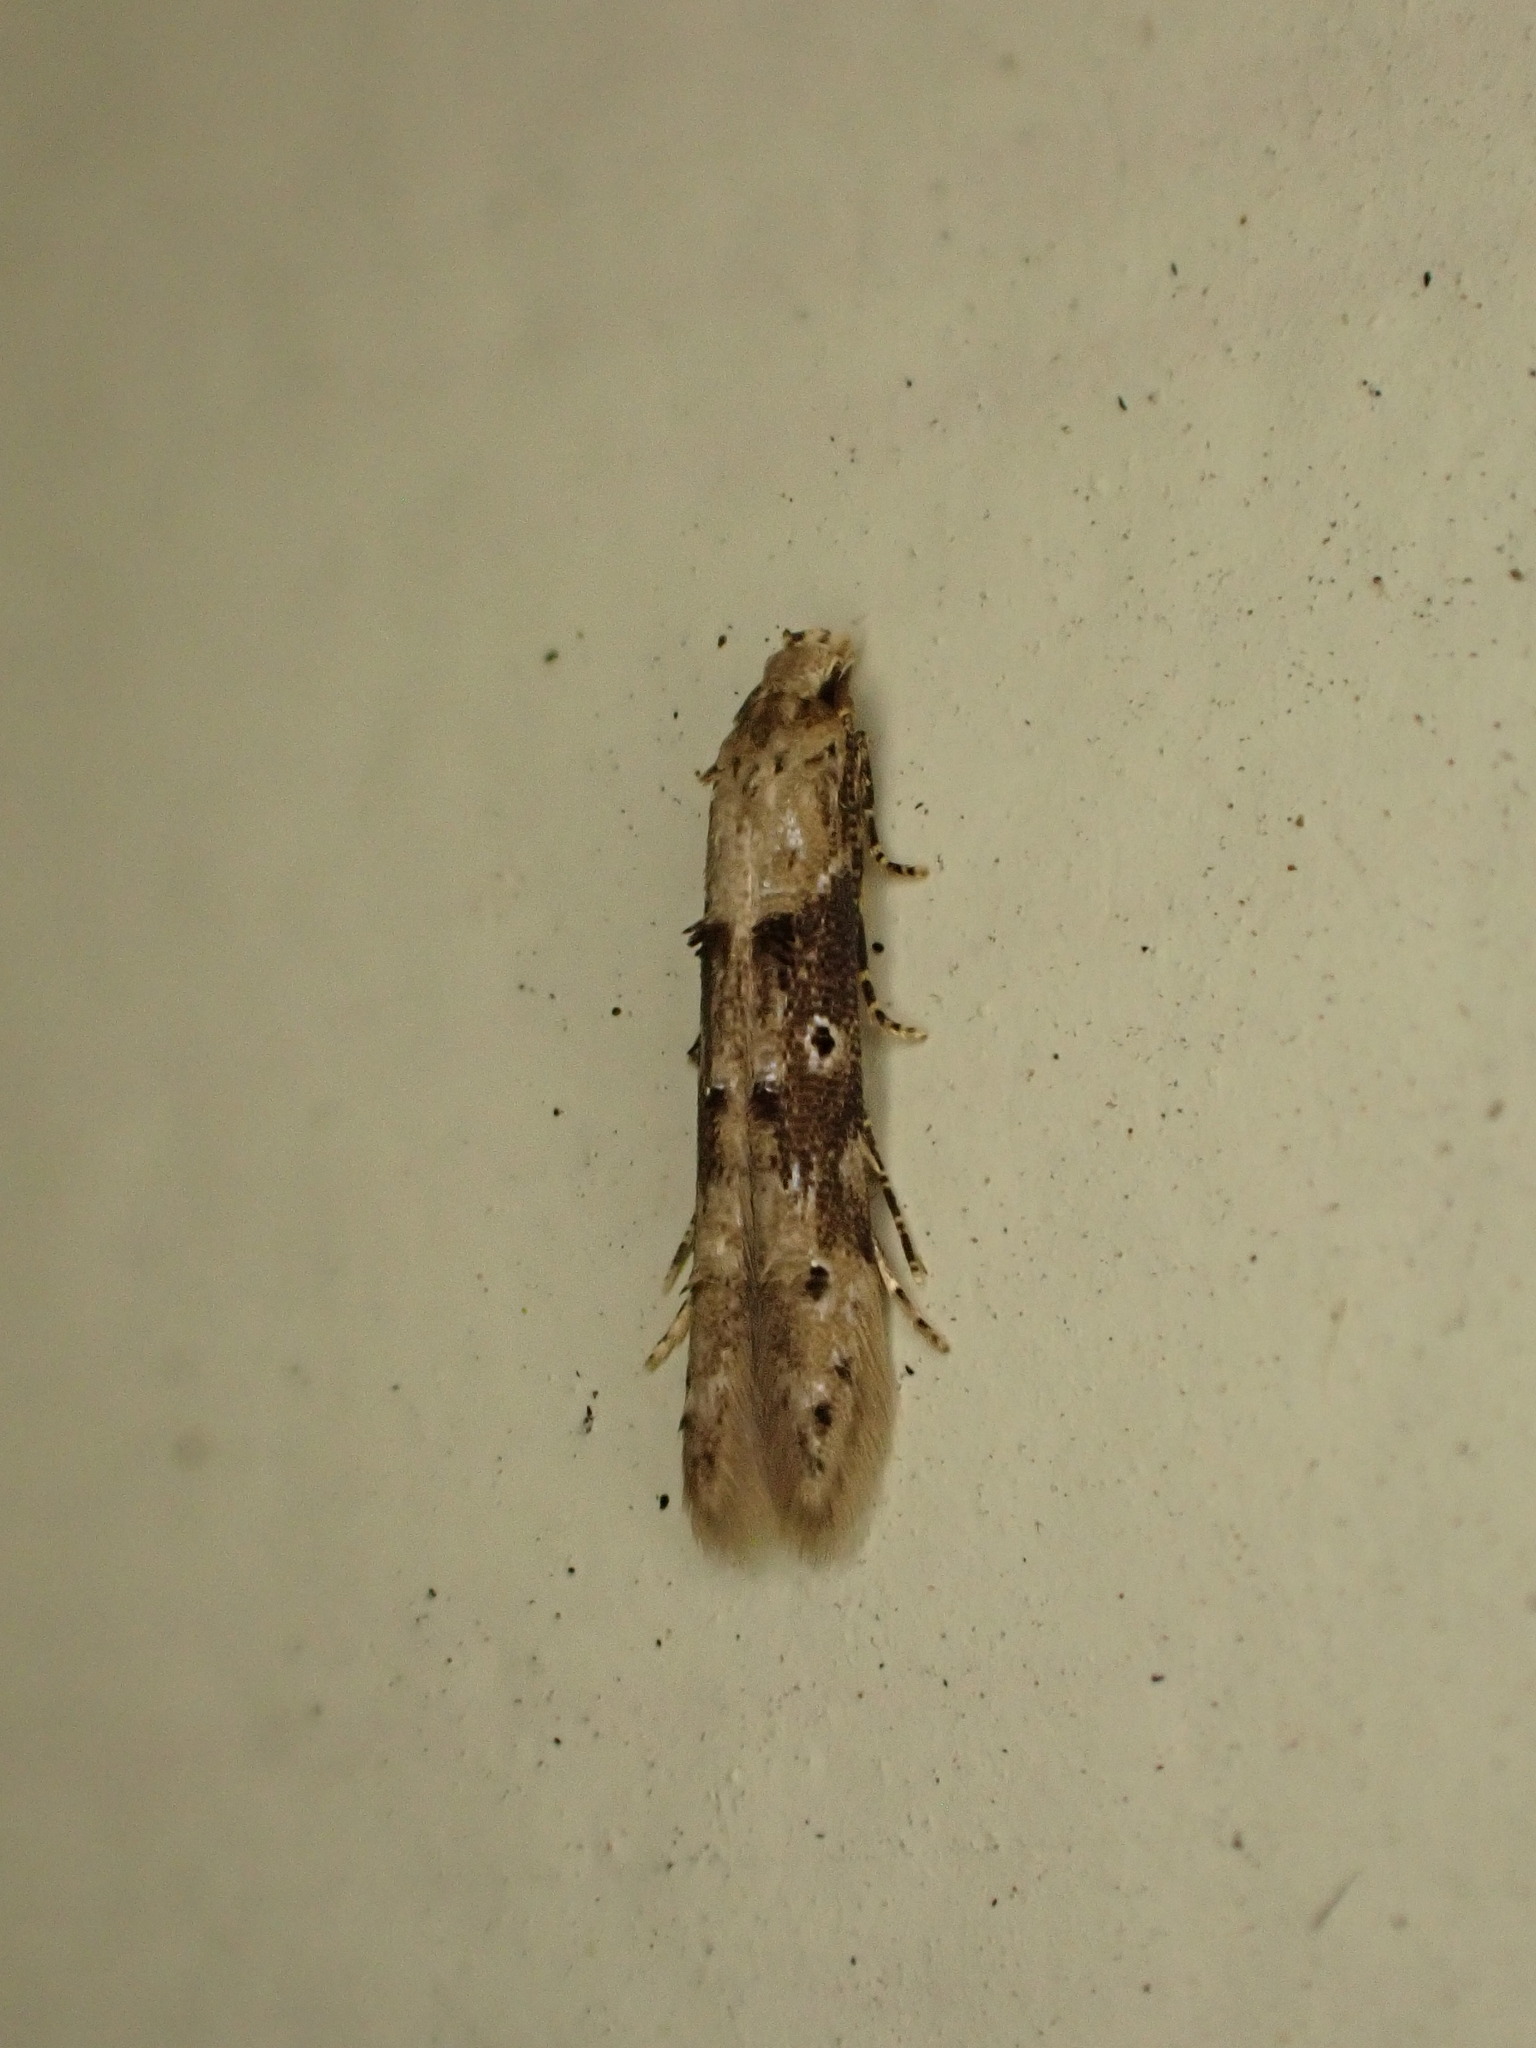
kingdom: Animalia
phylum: Arthropoda
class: Insecta
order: Lepidoptera
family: Elachistidae
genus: Microcolona
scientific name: Microcolona limodes
